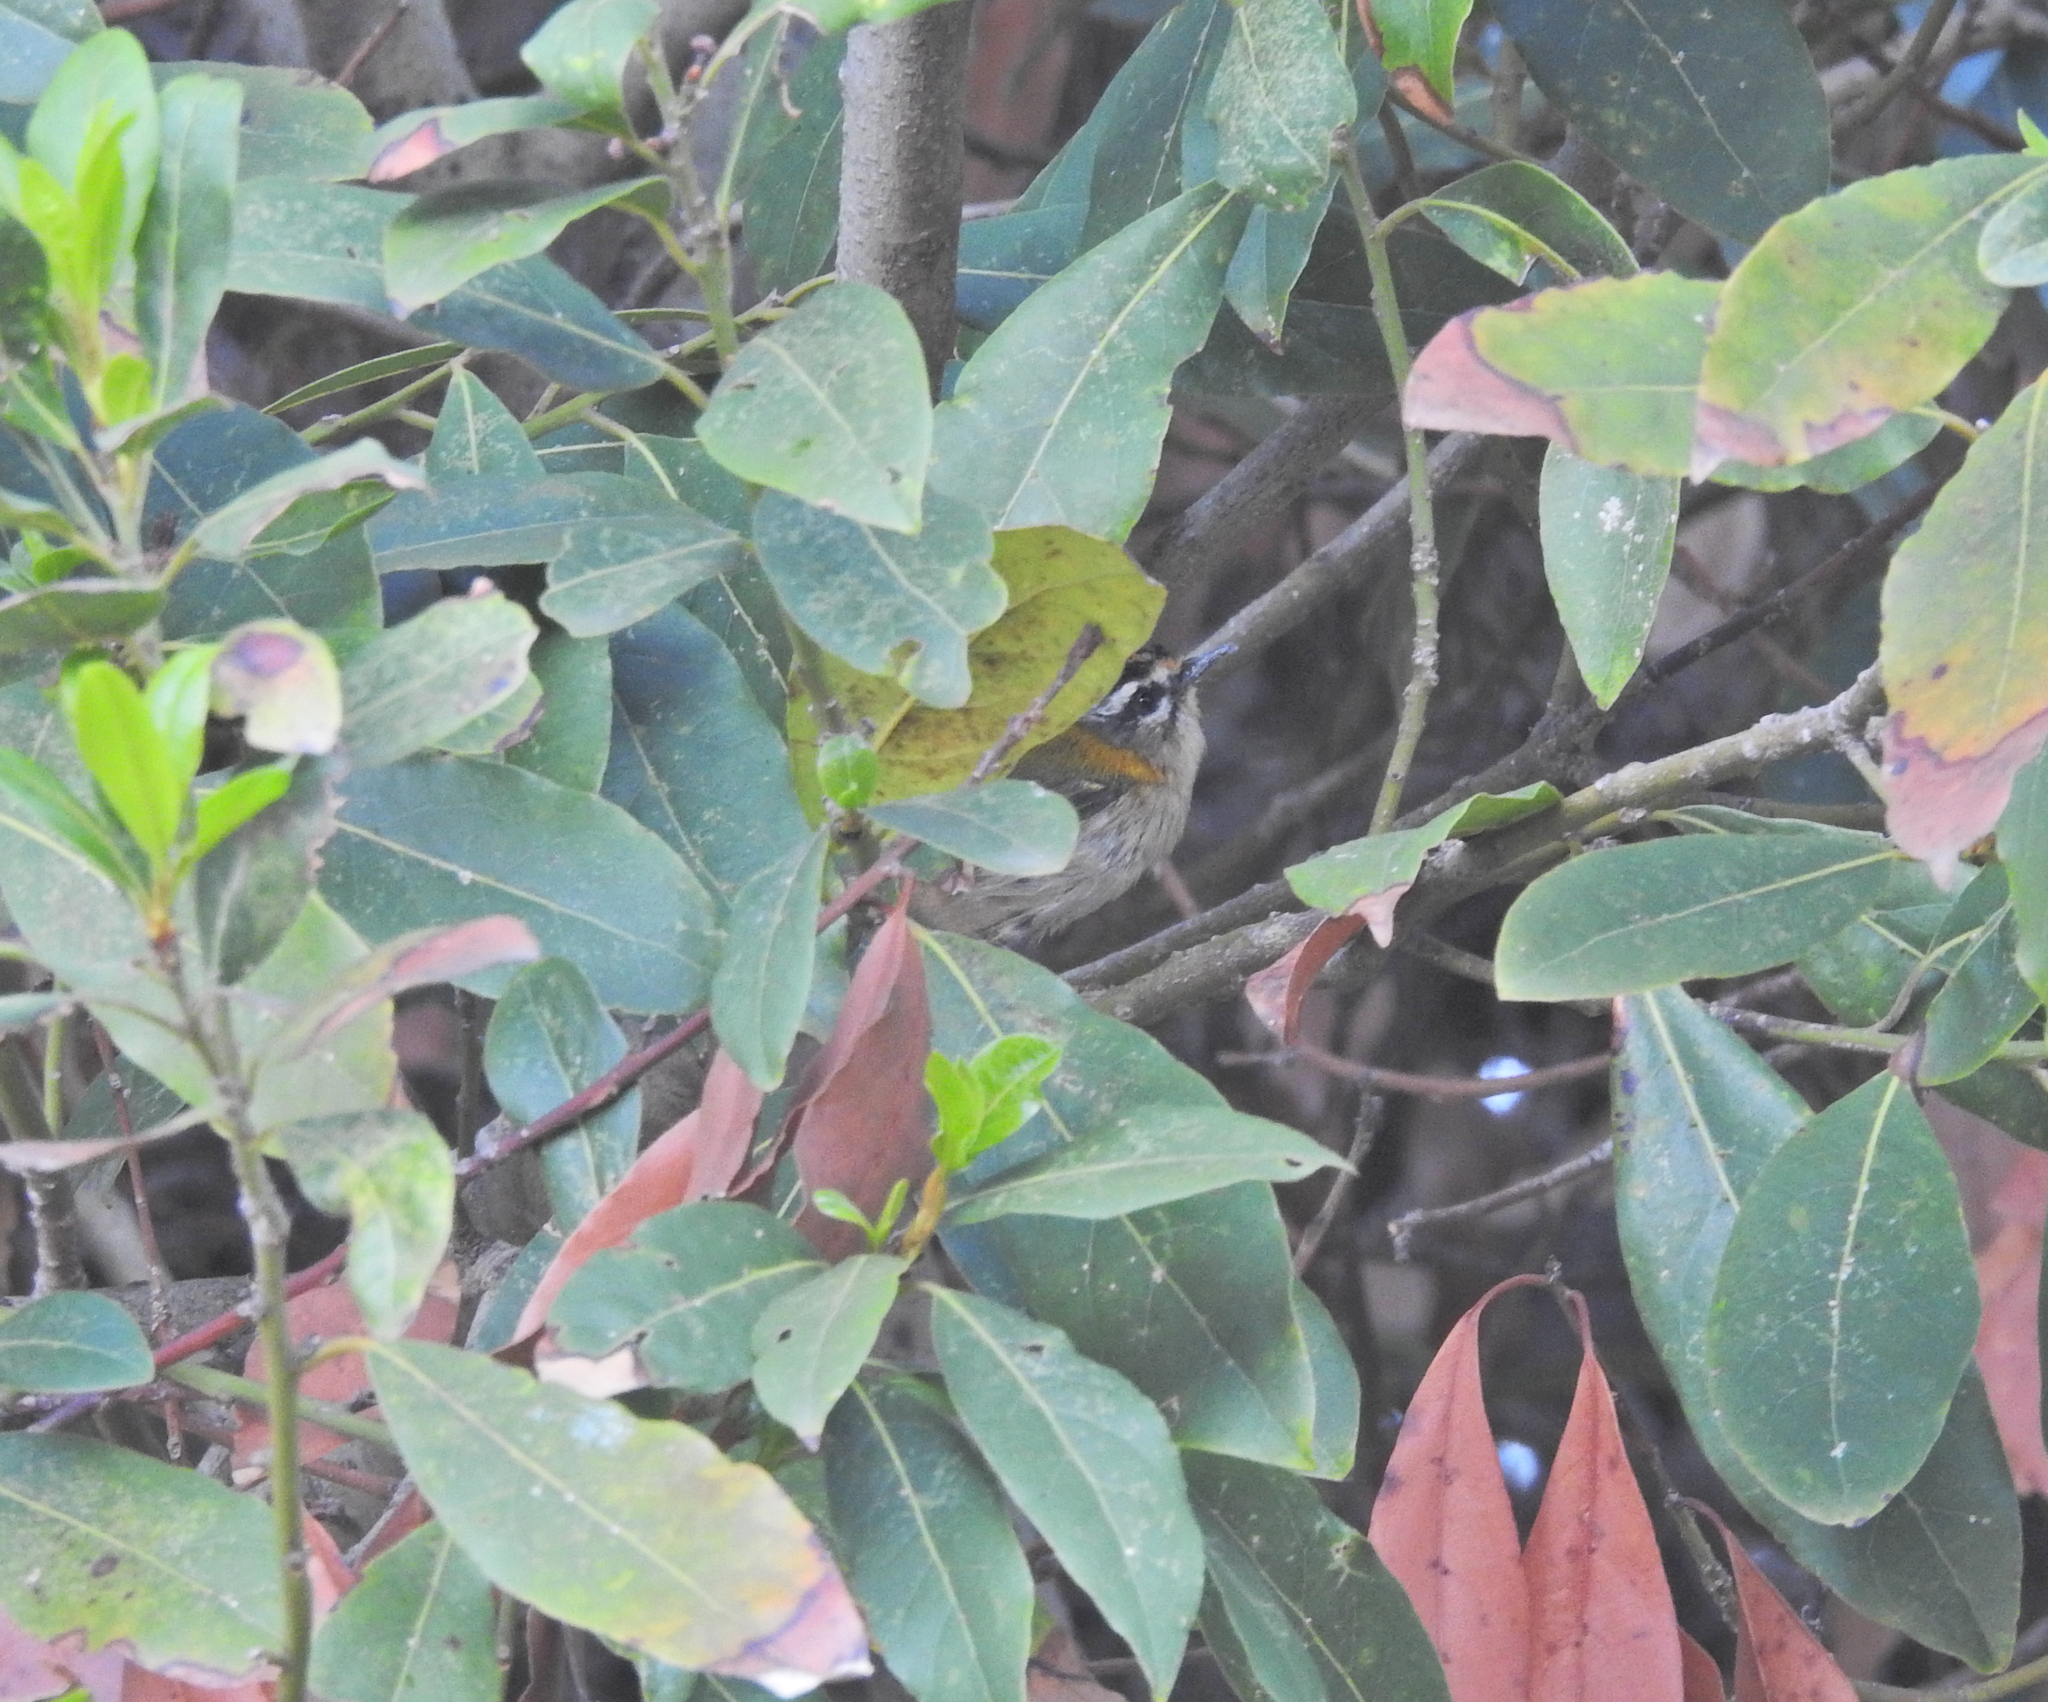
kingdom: Animalia
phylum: Chordata
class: Aves
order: Passeriformes
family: Regulidae
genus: Regulus
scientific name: Regulus ignicapilla
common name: Firecrest
